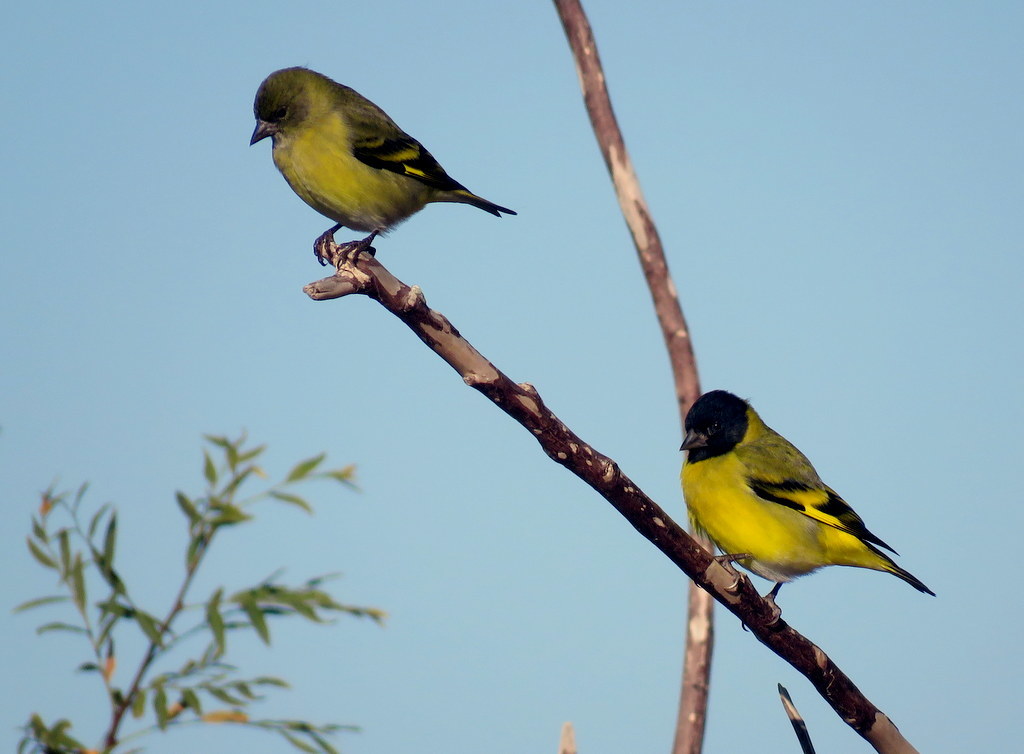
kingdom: Animalia
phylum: Chordata
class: Aves
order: Passeriformes
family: Fringillidae
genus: Spinus
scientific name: Spinus magellanicus
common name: Hooded siskin
